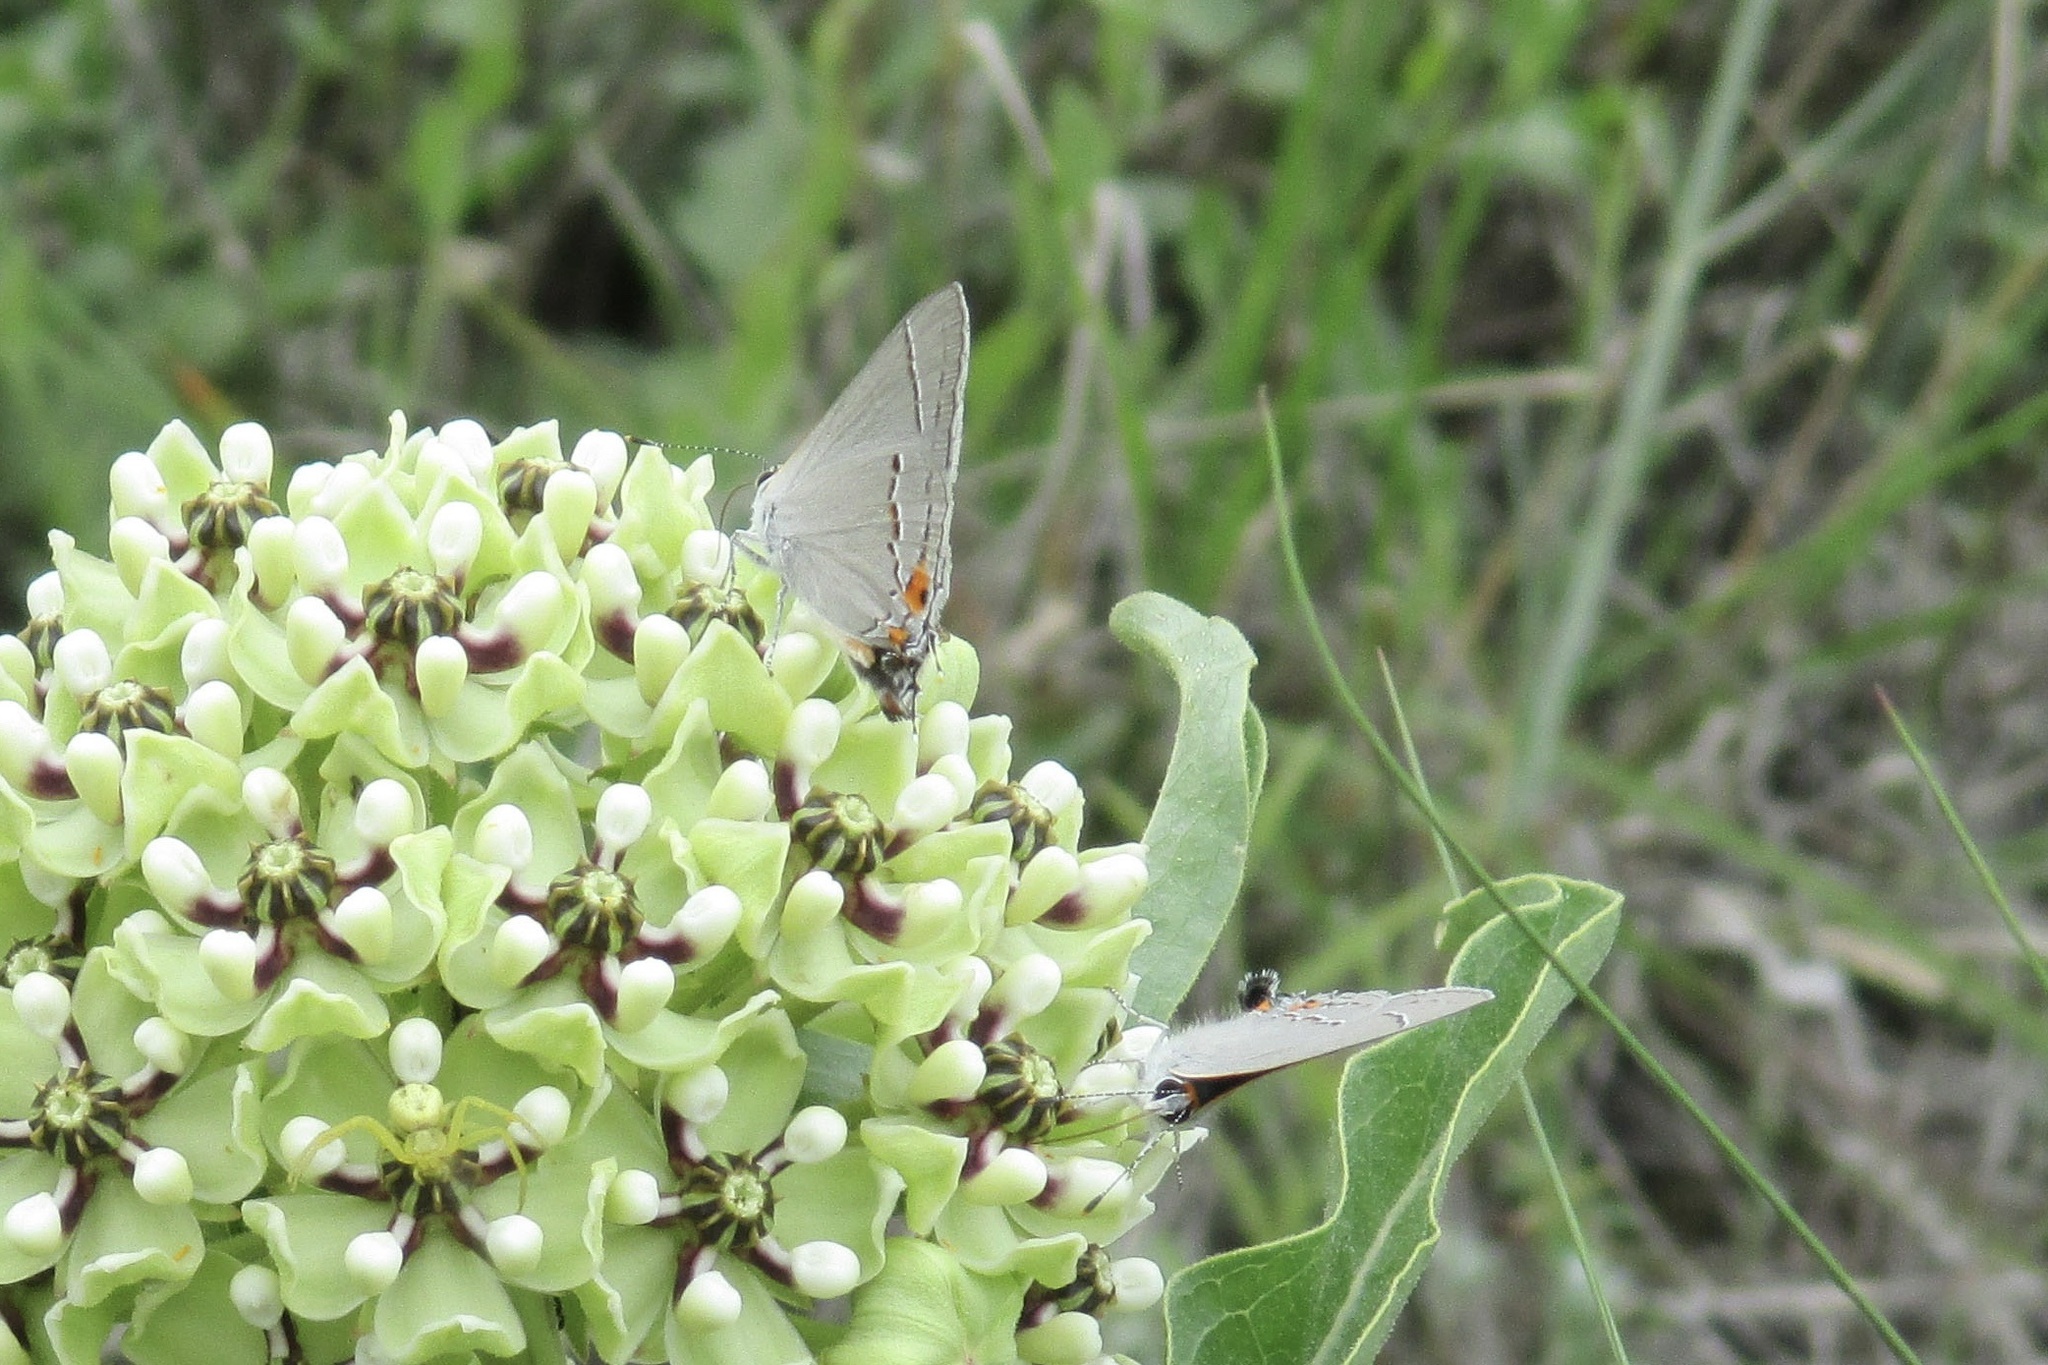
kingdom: Animalia
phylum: Arthropoda
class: Insecta
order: Lepidoptera
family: Lycaenidae
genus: Strymon
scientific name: Strymon melinus
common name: Gray hairstreak
